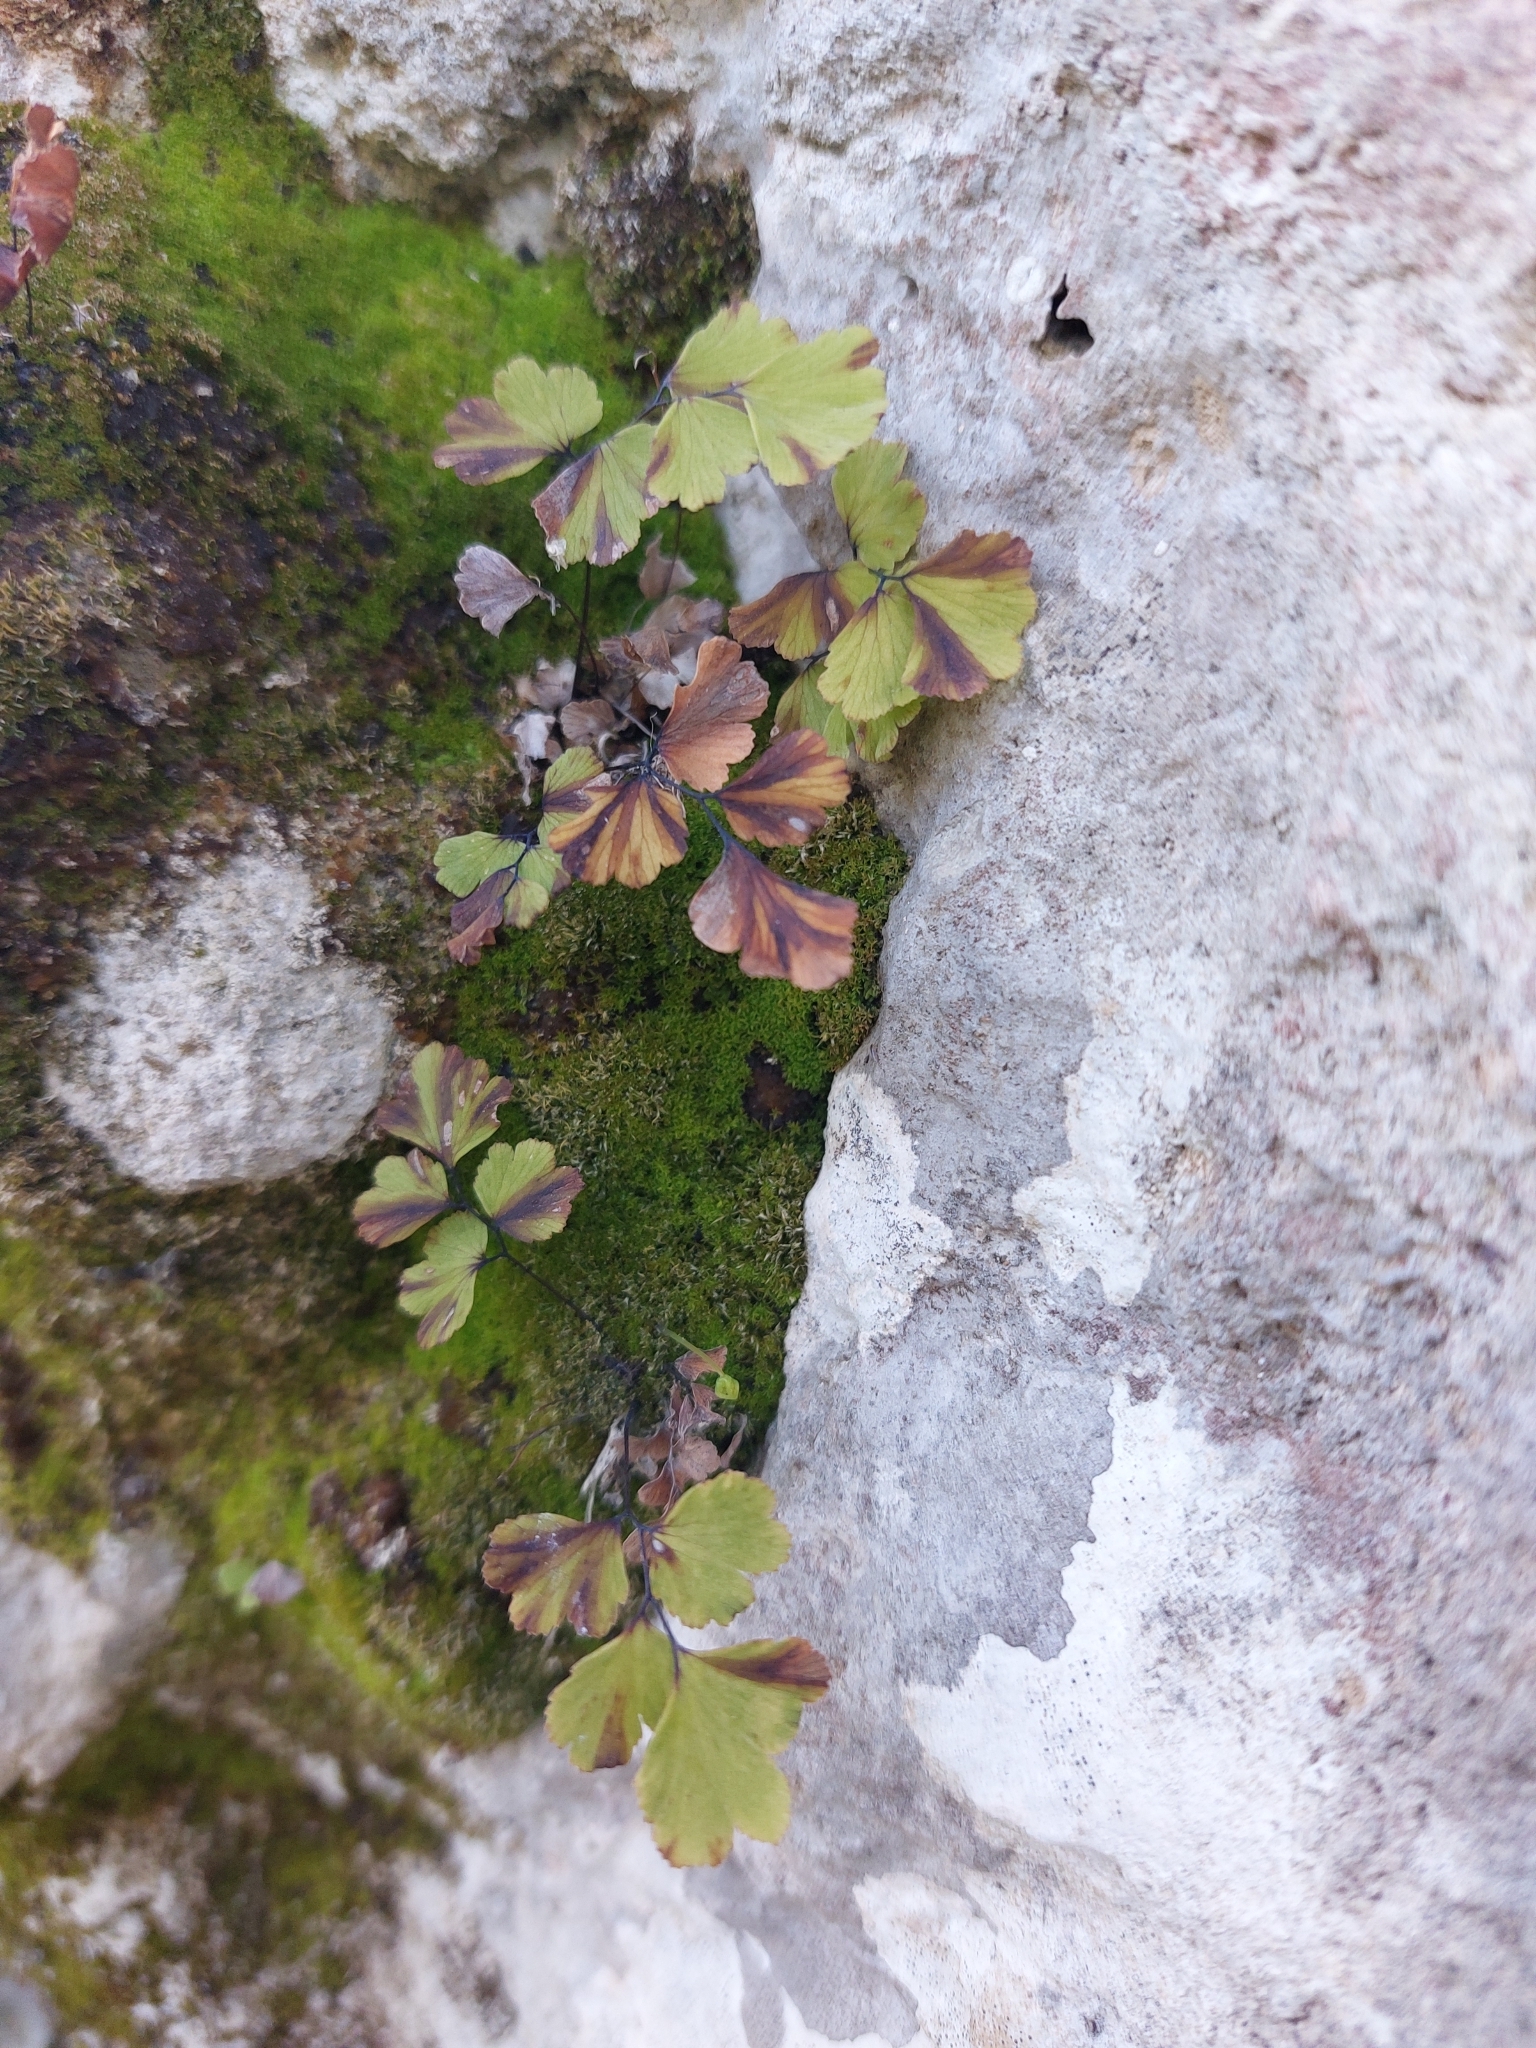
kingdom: Plantae
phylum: Tracheophyta
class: Polypodiopsida
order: Polypodiales
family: Pteridaceae
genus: Adiantum
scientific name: Adiantum capillus-veneris
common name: Maidenhair fern
